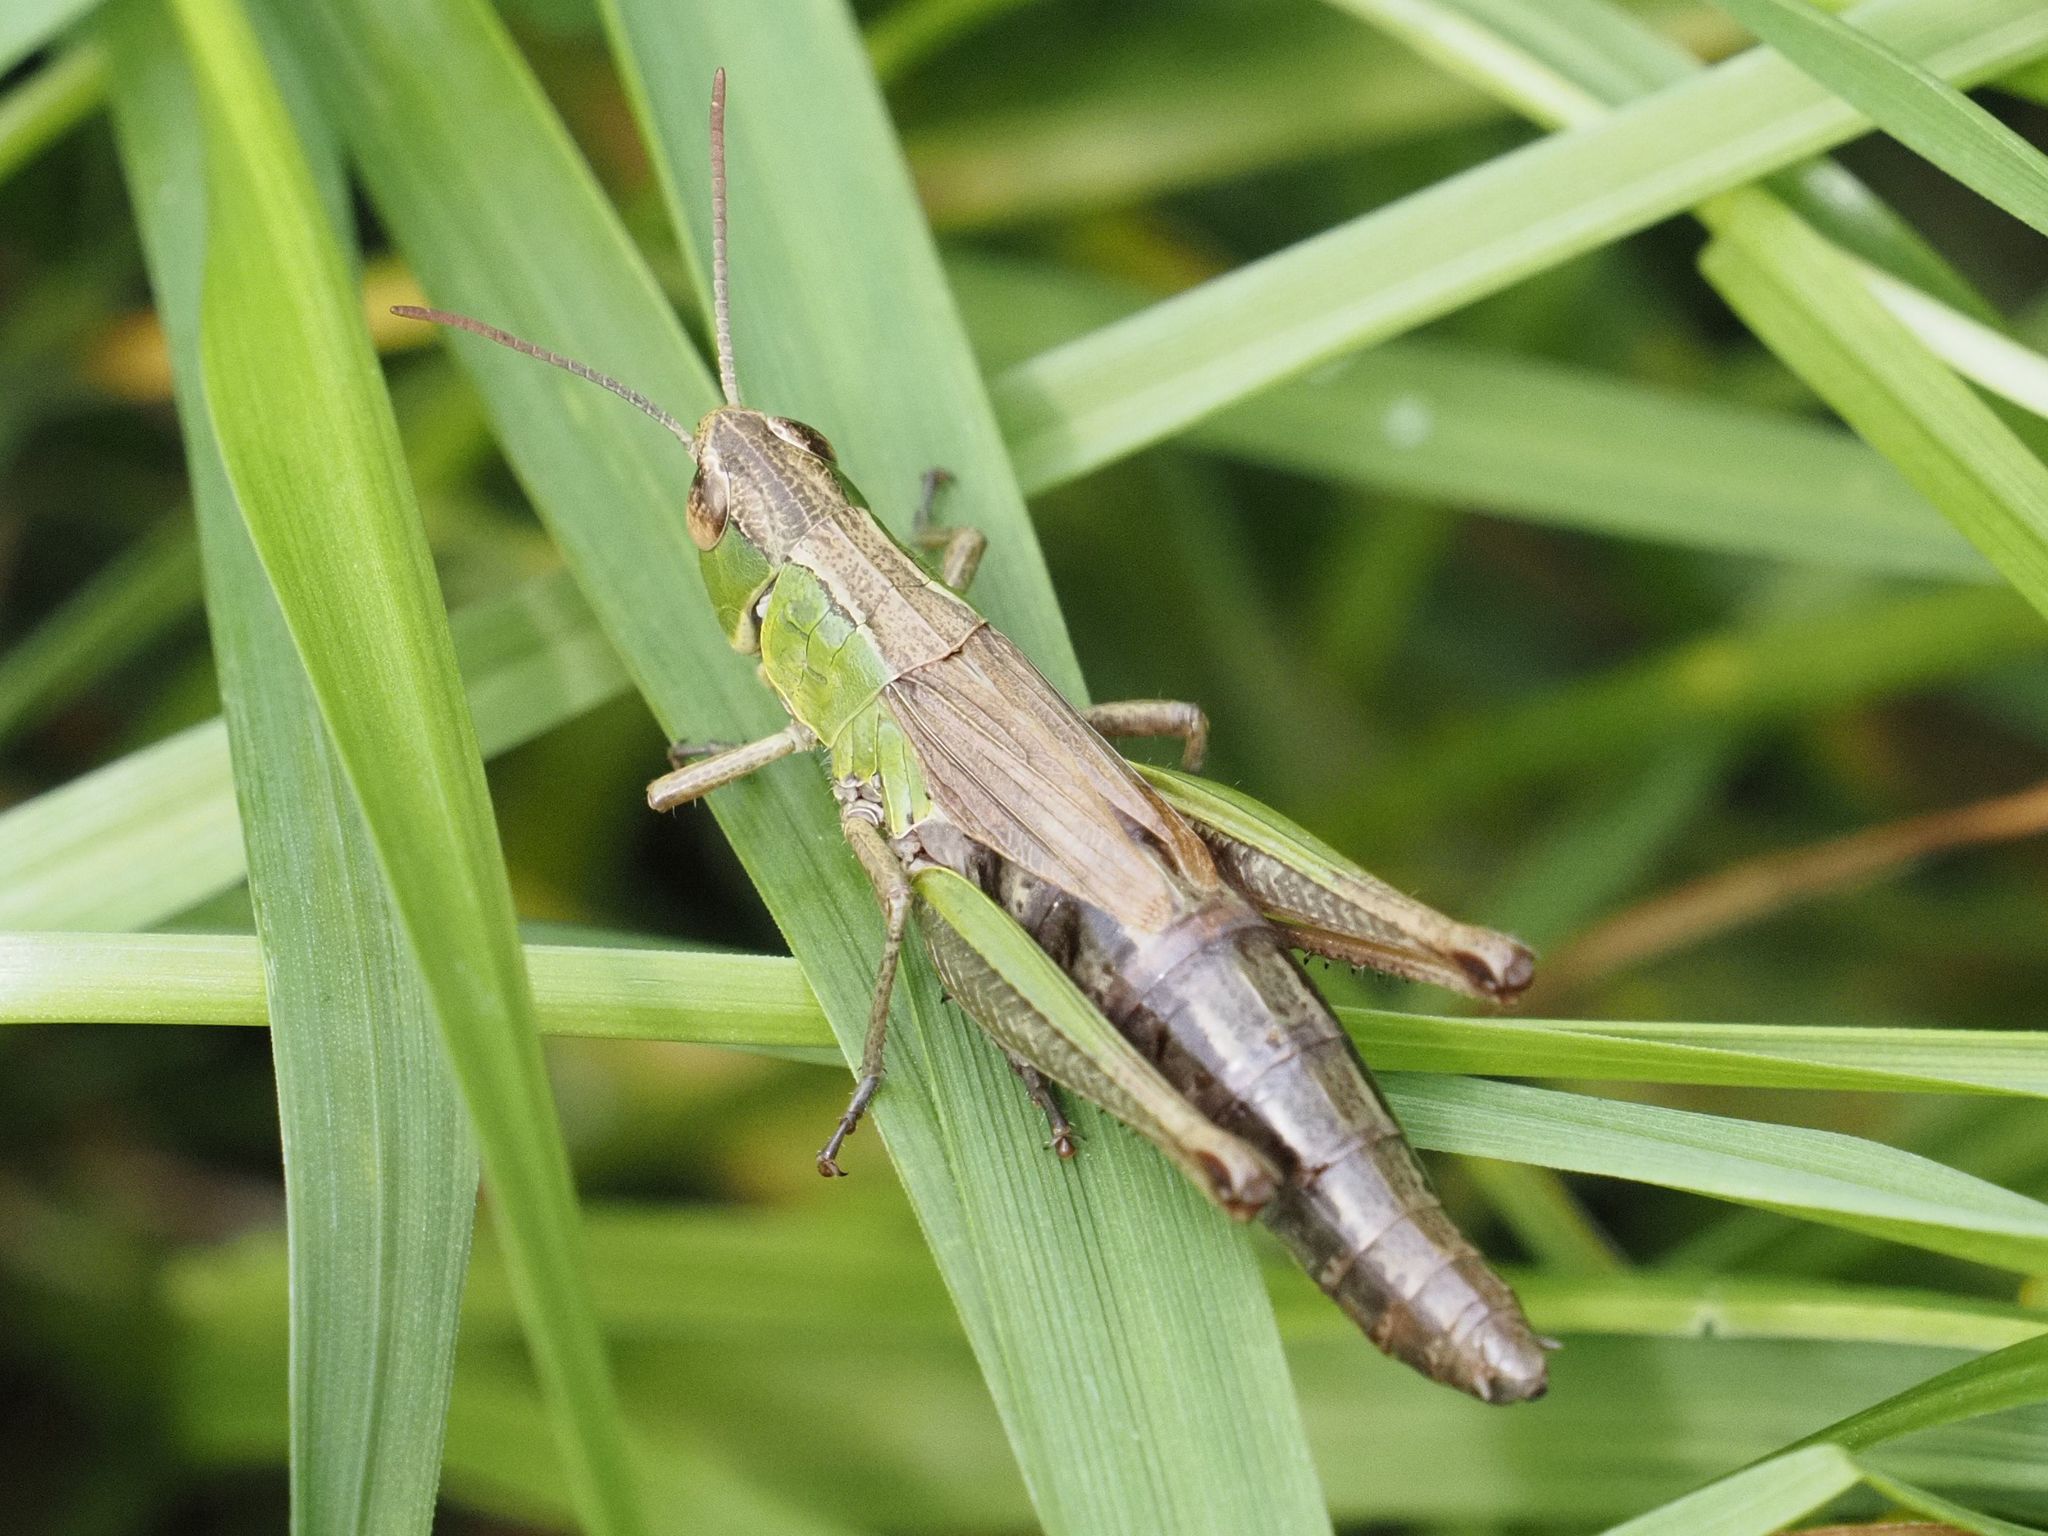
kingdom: Animalia
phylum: Arthropoda
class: Insecta
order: Orthoptera
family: Acrididae
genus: Pseudochorthippus
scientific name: Pseudochorthippus parallelus
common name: Meadow grasshopper
